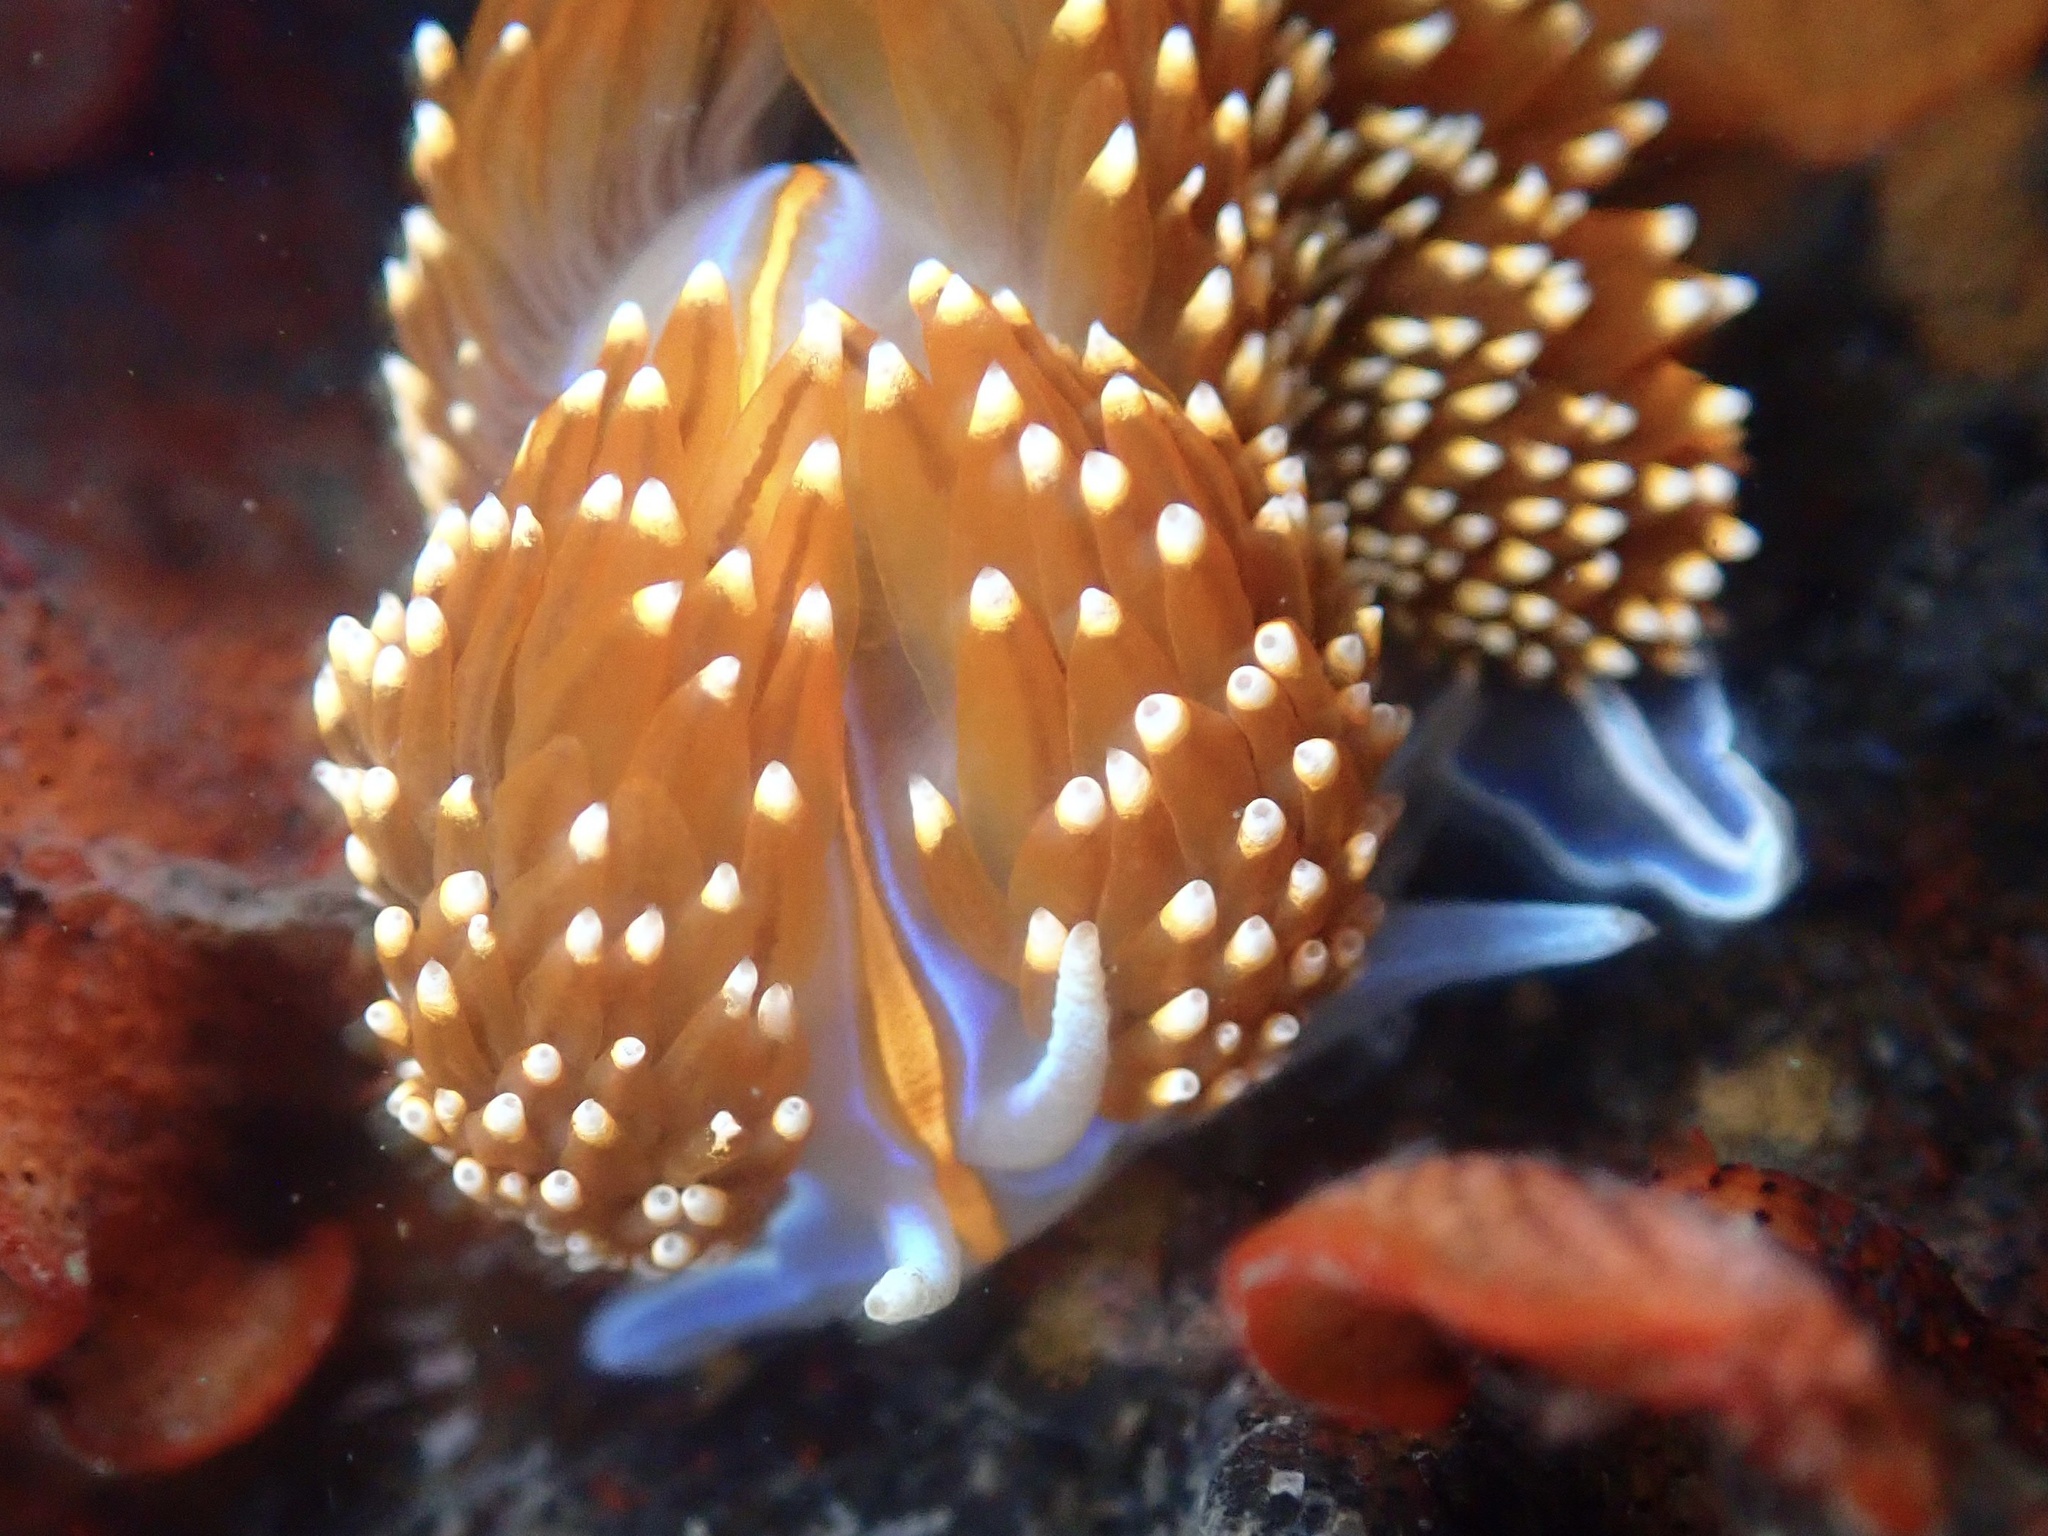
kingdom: Animalia
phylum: Mollusca
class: Gastropoda
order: Nudibranchia
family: Myrrhinidae
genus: Hermissenda
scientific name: Hermissenda opalescens
